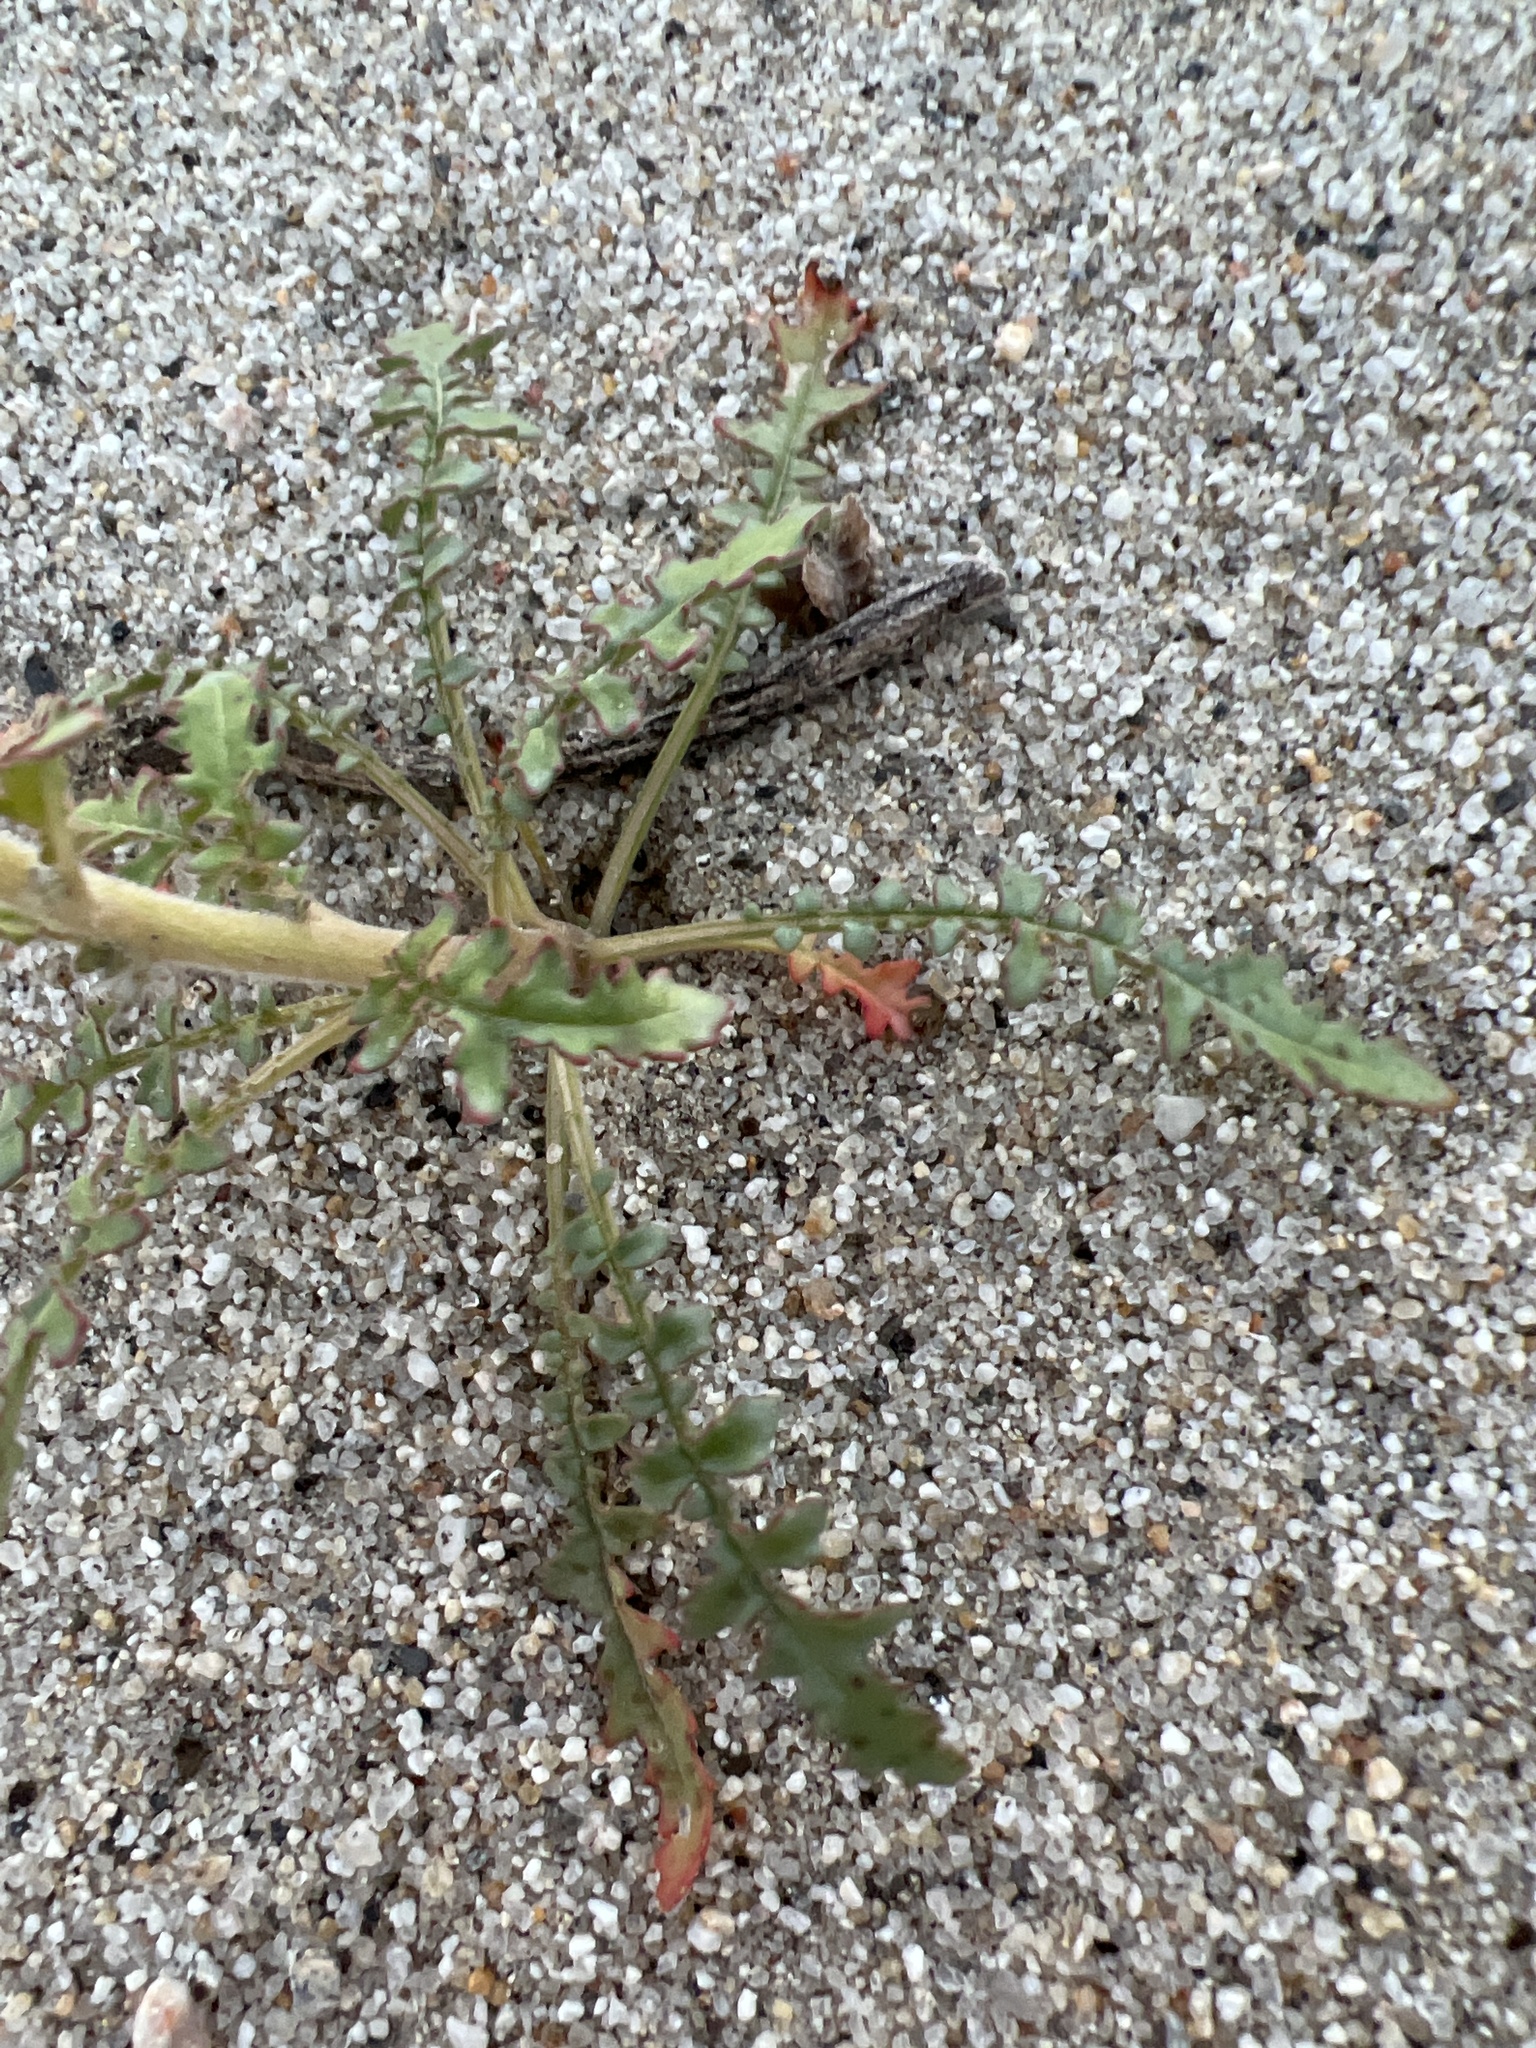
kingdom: Plantae
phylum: Tracheophyta
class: Magnoliopsida
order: Myrtales
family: Onagraceae
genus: Chylismia
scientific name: Chylismia claviformis
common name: Browneyes
